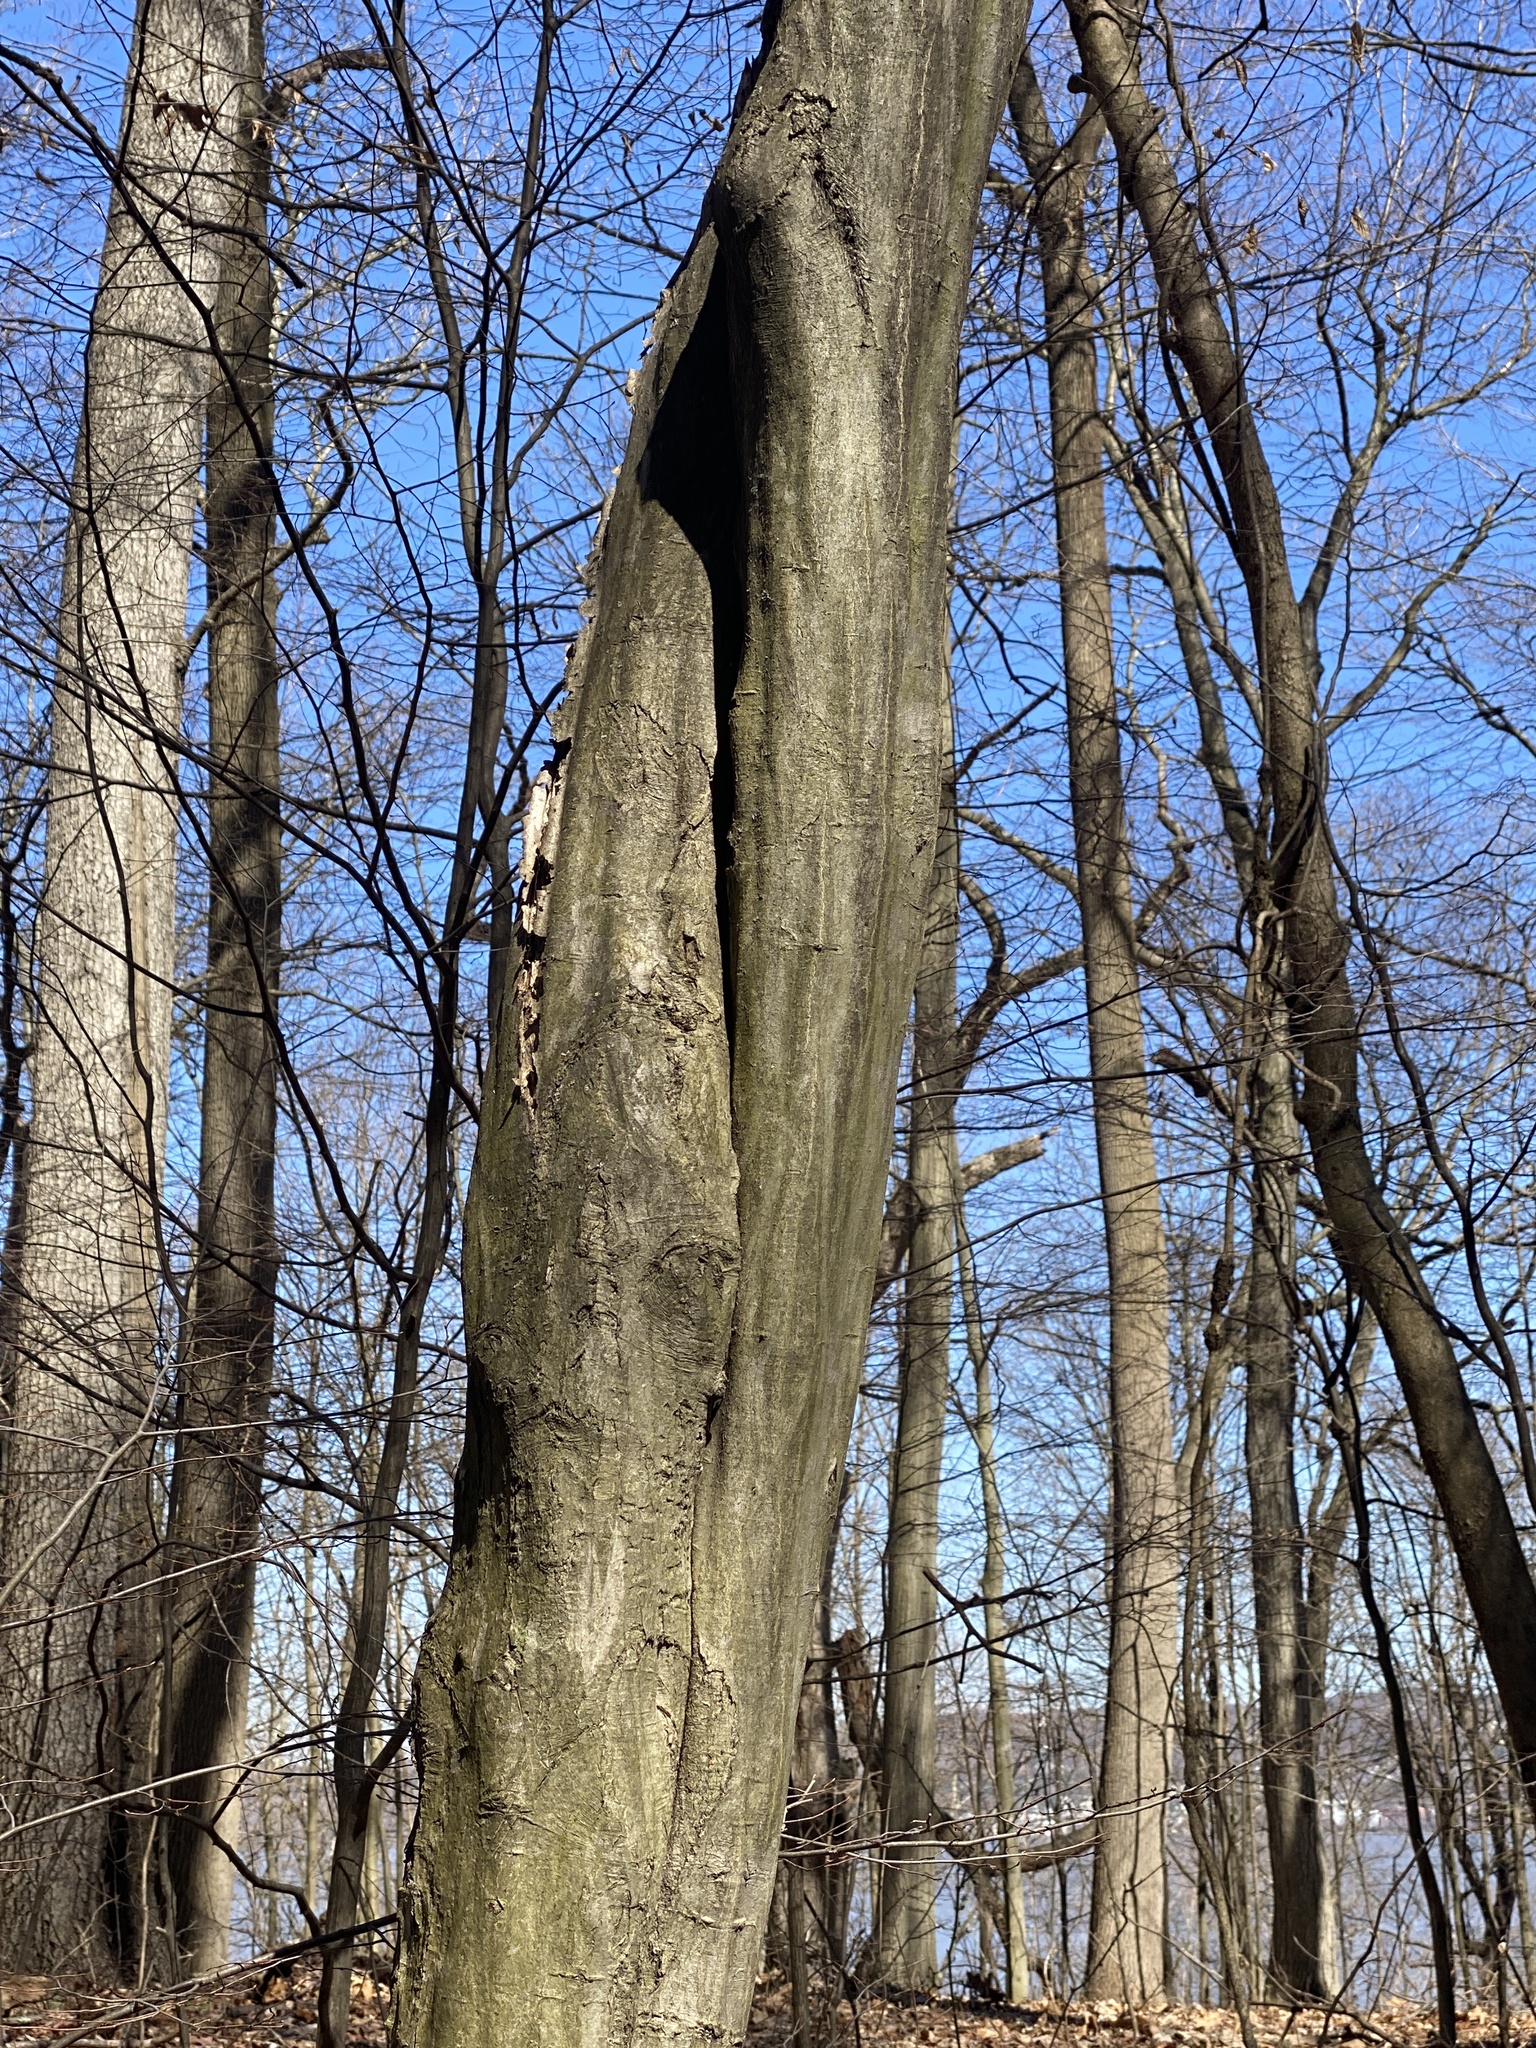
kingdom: Plantae
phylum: Tracheophyta
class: Magnoliopsida
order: Fagales
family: Betulaceae
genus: Carpinus
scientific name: Carpinus caroliniana
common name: American hornbeam
